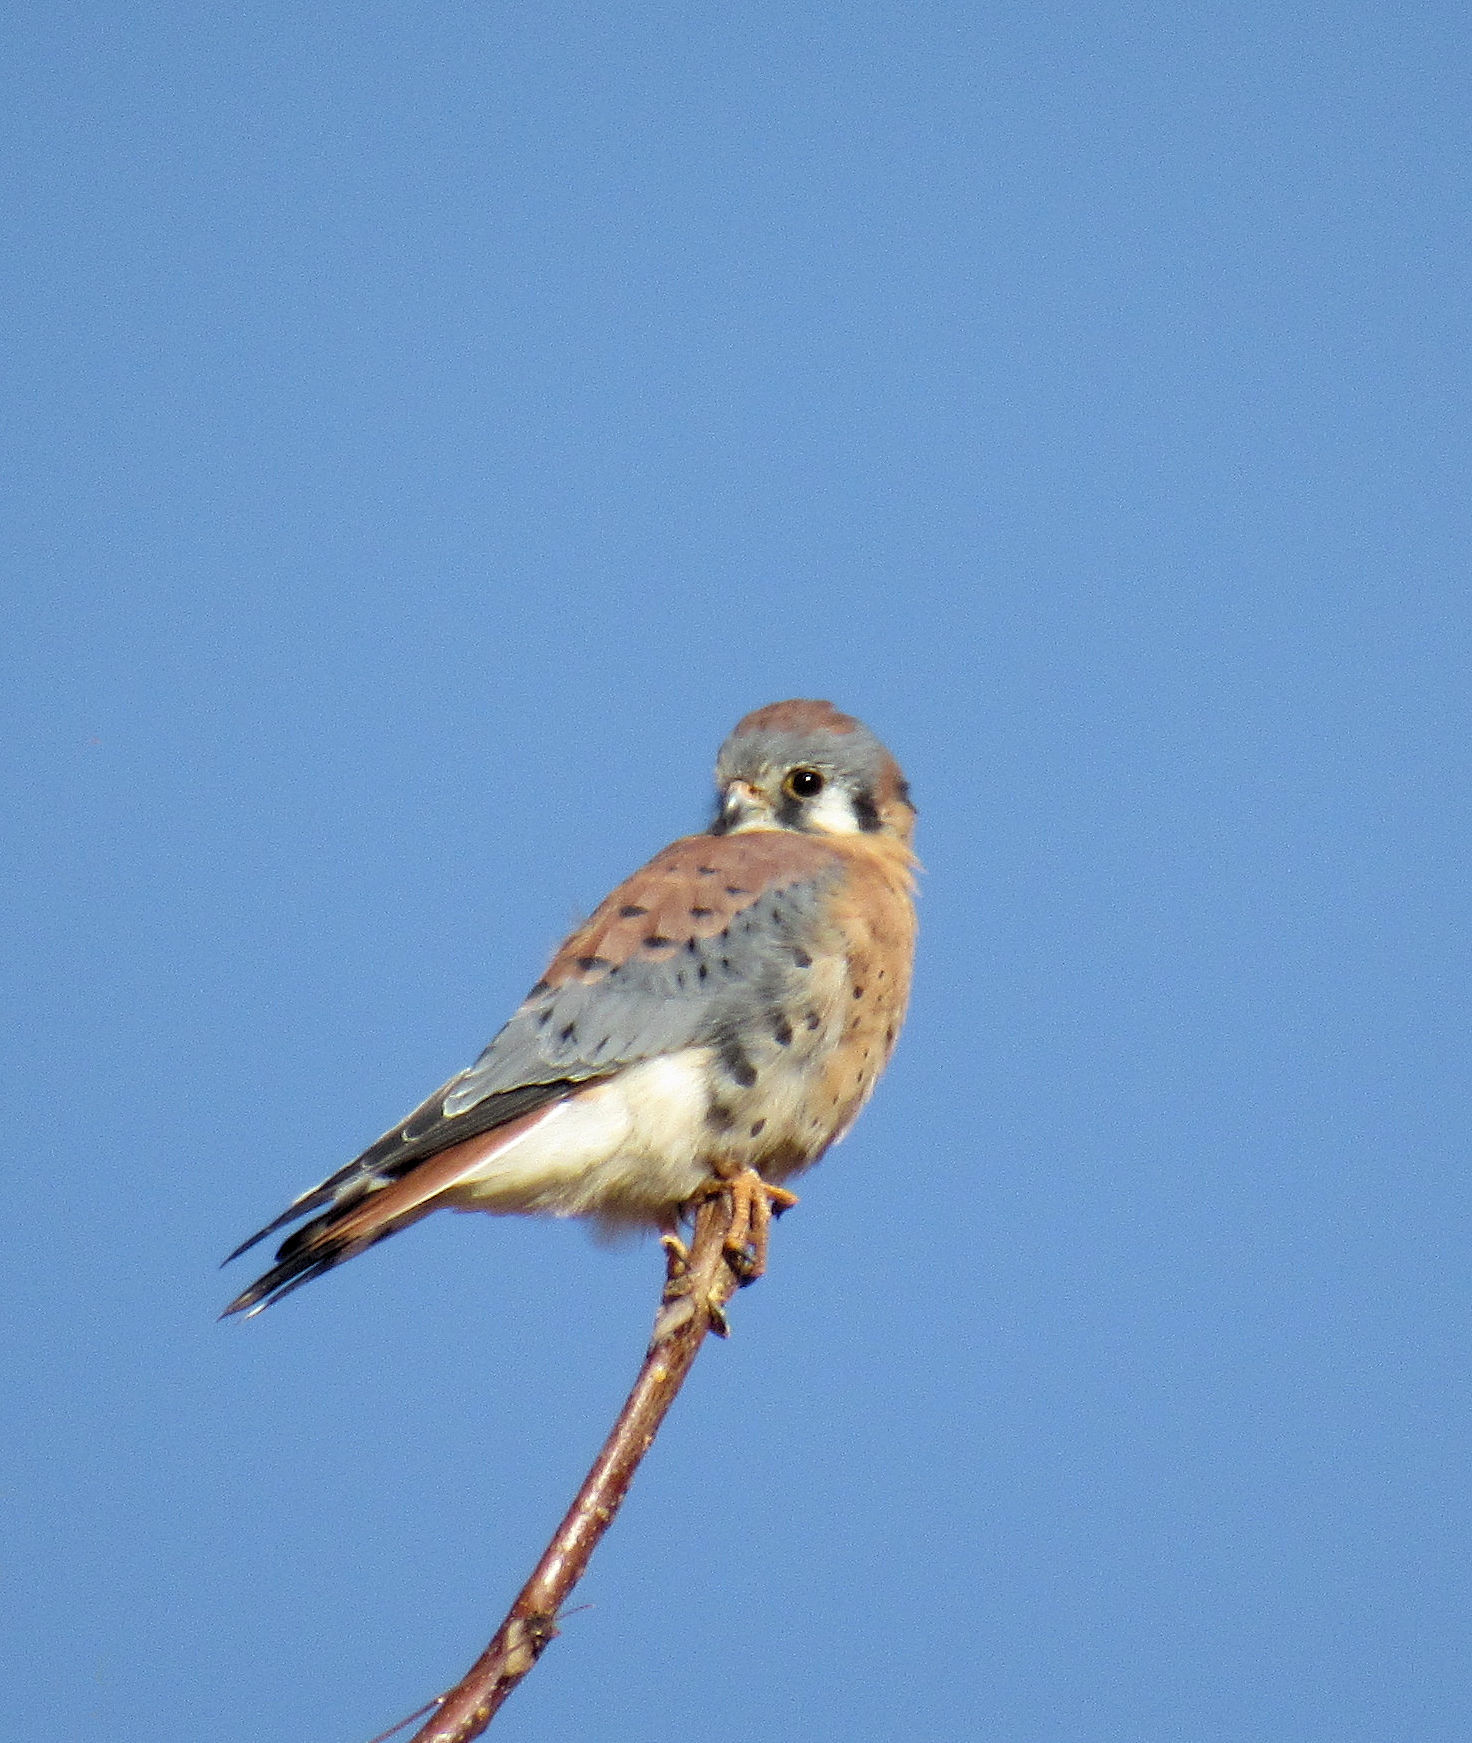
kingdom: Animalia
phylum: Chordata
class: Aves
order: Falconiformes
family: Falconidae
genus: Falco
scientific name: Falco sparverius
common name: American kestrel
